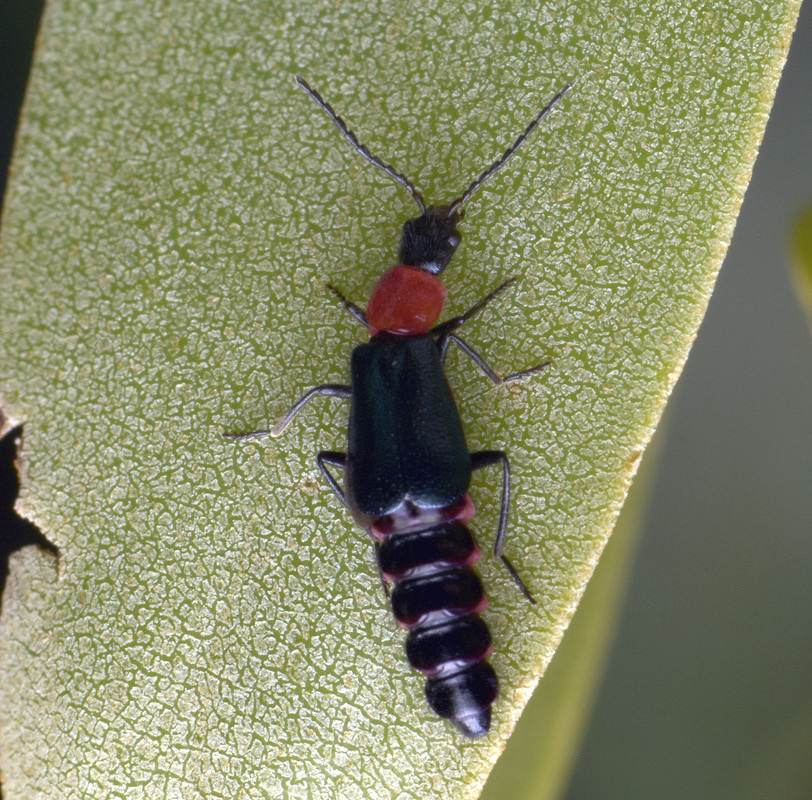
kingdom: Animalia
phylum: Arthropoda
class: Insecta
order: Coleoptera
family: Melyridae
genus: Carphurus
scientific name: Carphurus
